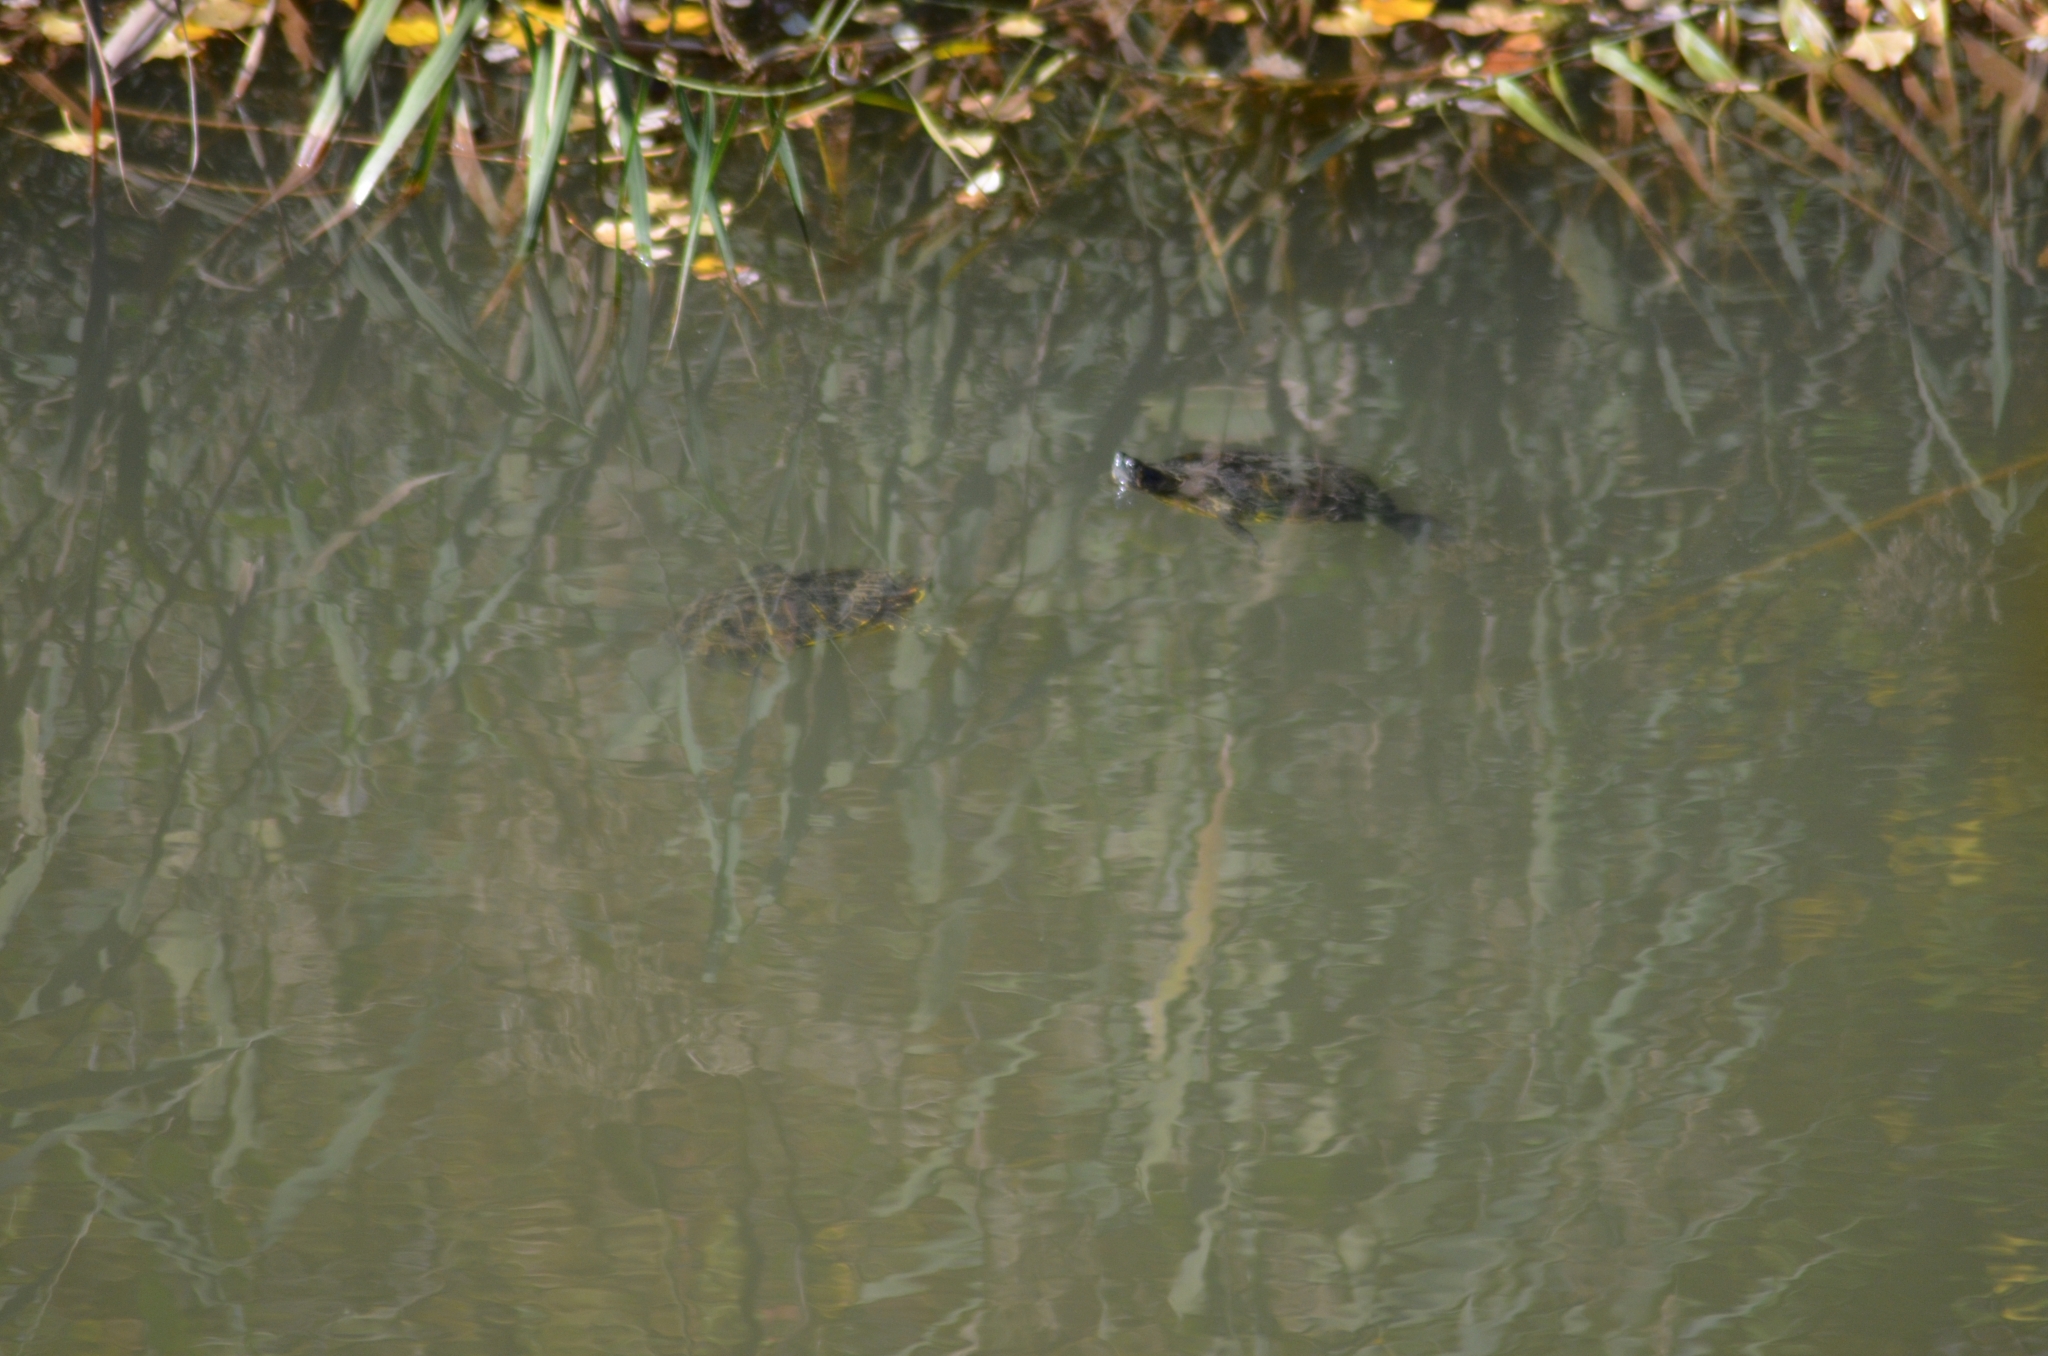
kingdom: Animalia
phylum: Chordata
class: Testudines
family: Emydidae
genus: Trachemys
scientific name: Trachemys scripta
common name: Slider
